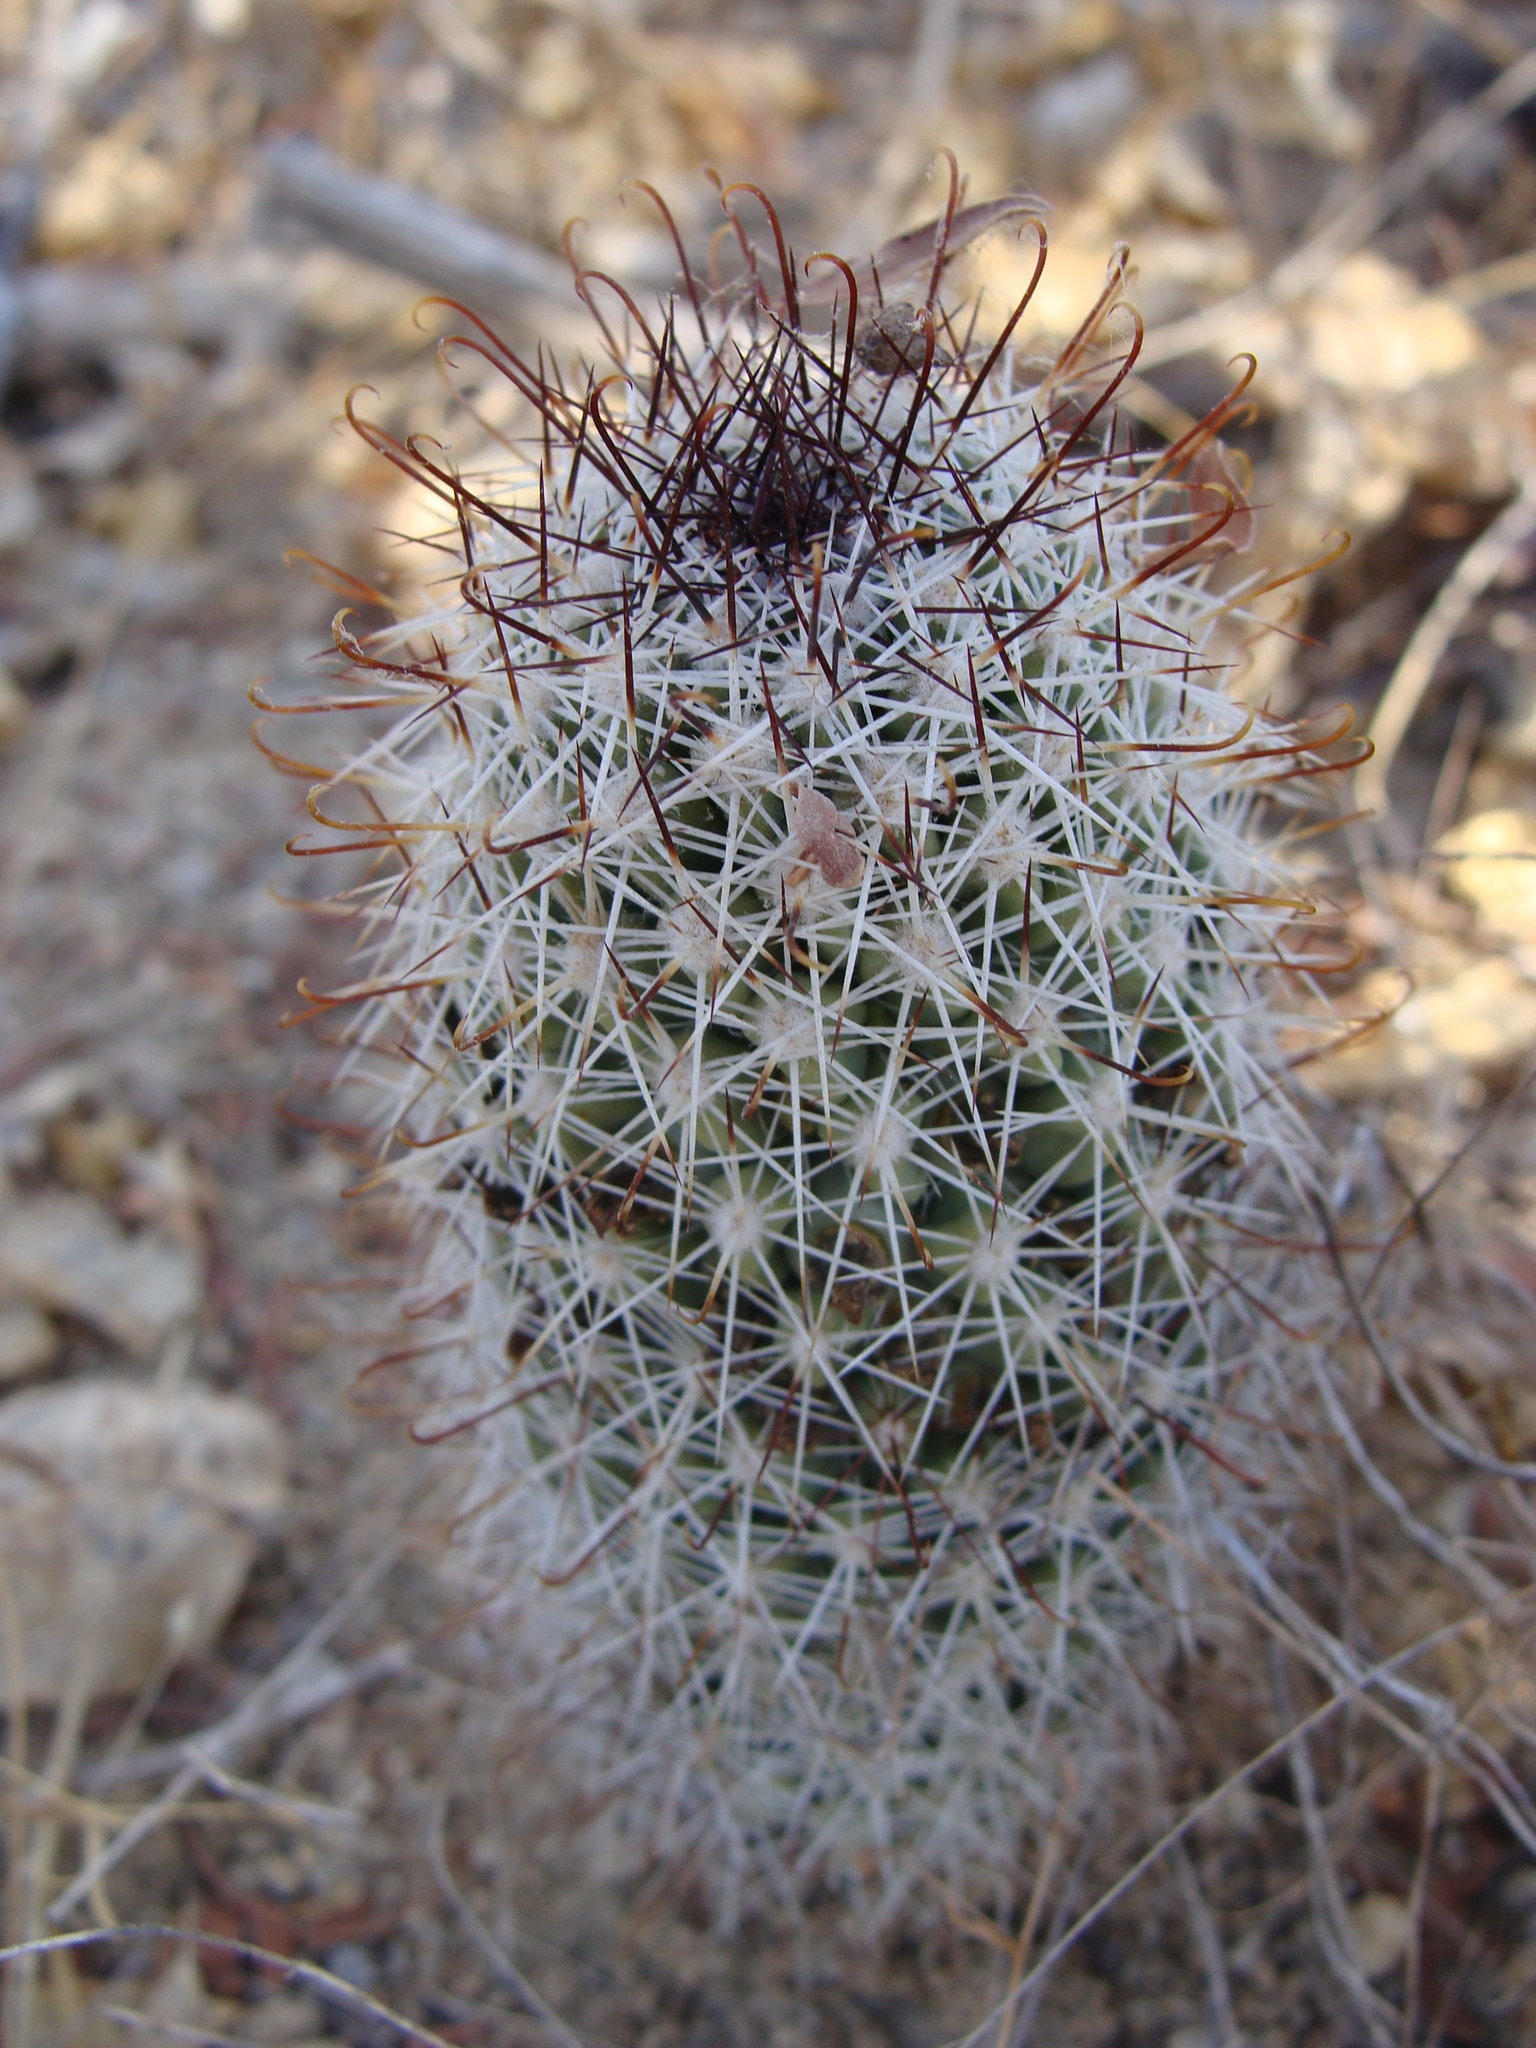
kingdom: Plantae
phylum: Tracheophyta
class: Magnoliopsida
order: Caryophyllales
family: Cactaceae
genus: Cochemiea
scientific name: Cochemiea armillata
